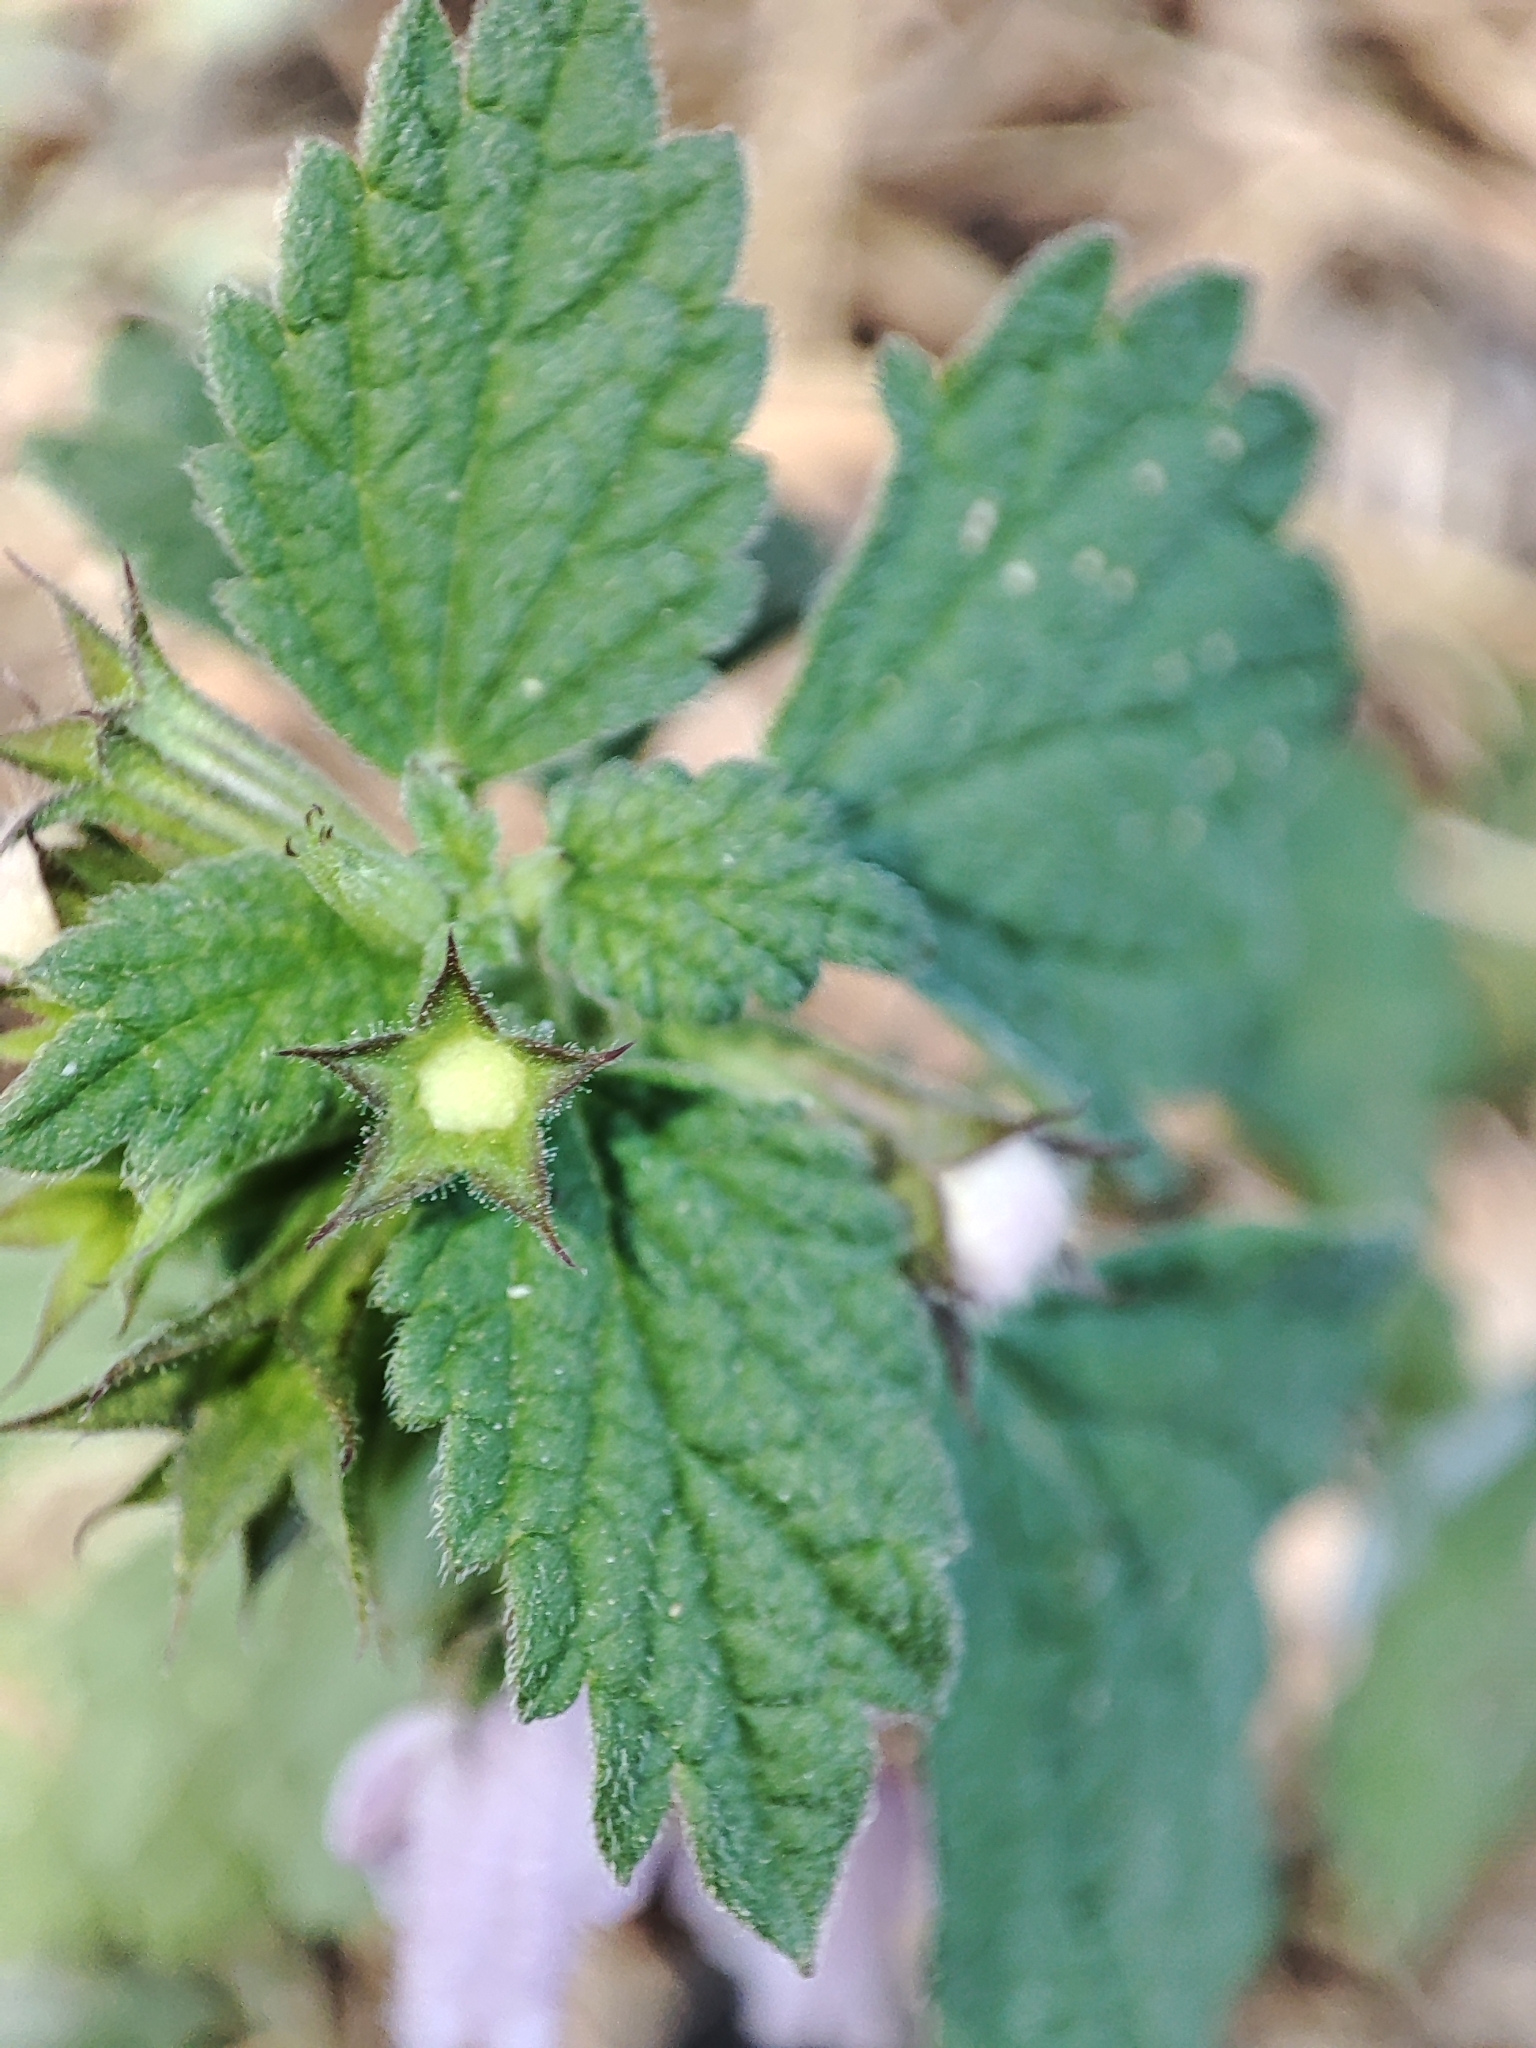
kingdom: Plantae
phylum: Tracheophyta
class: Magnoliopsida
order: Lamiales
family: Lamiaceae
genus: Ballota
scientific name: Ballota nigra
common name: Black horehound
